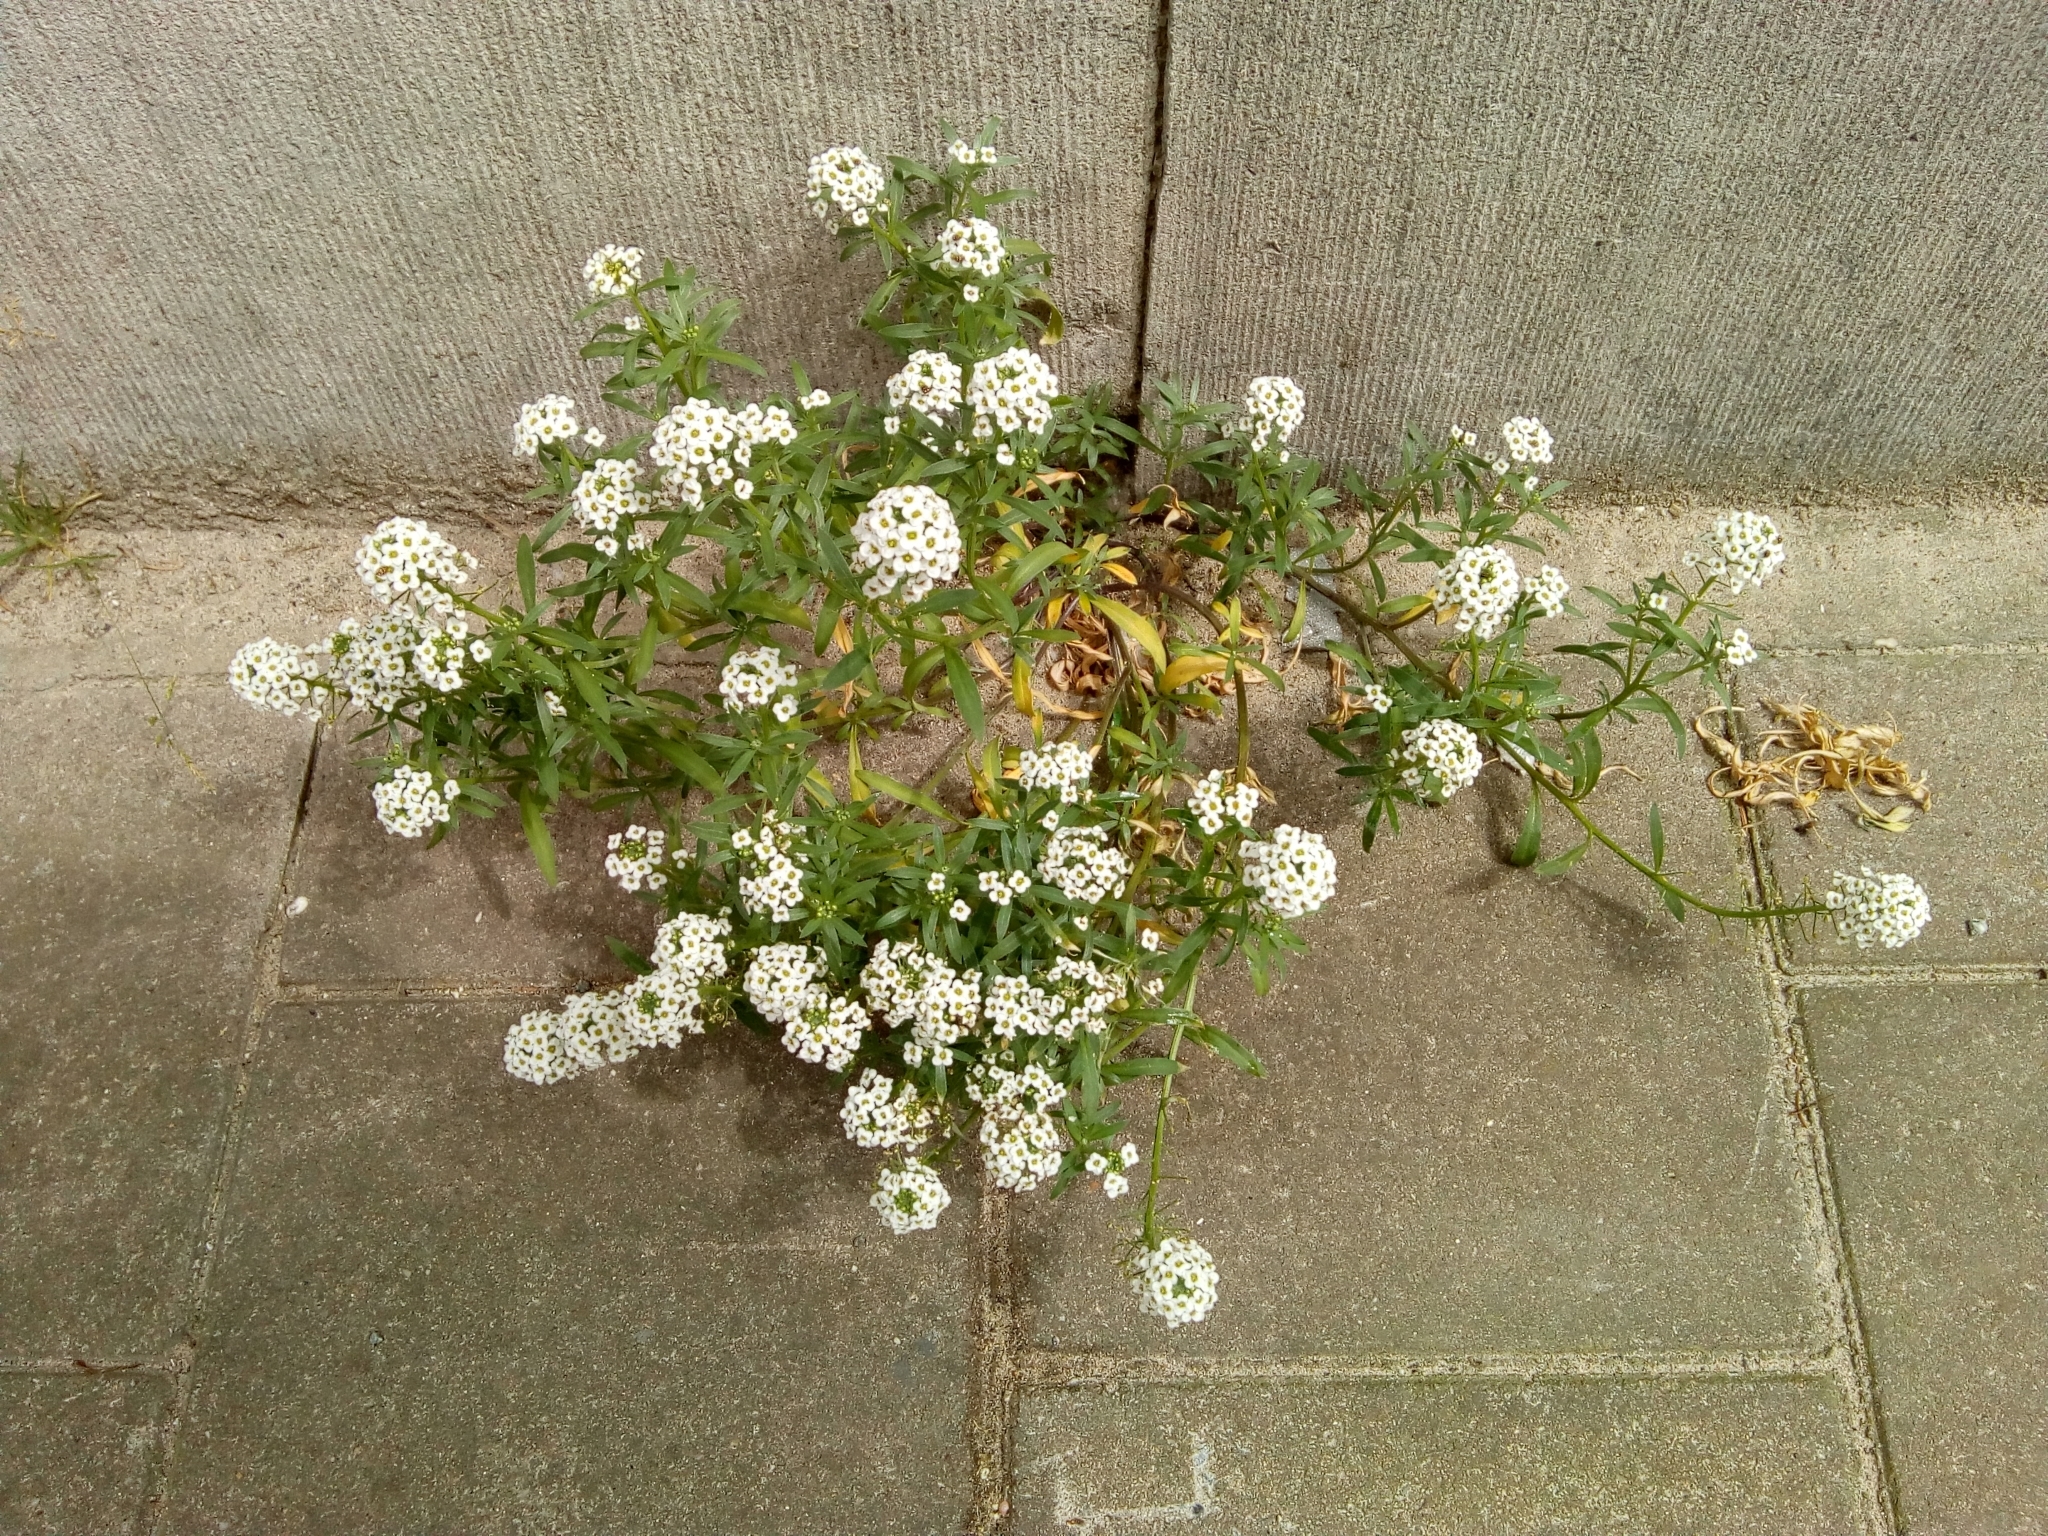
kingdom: Plantae
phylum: Tracheophyta
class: Magnoliopsida
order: Brassicales
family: Brassicaceae
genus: Lobularia
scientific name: Lobularia maritima
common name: Sweet alison
